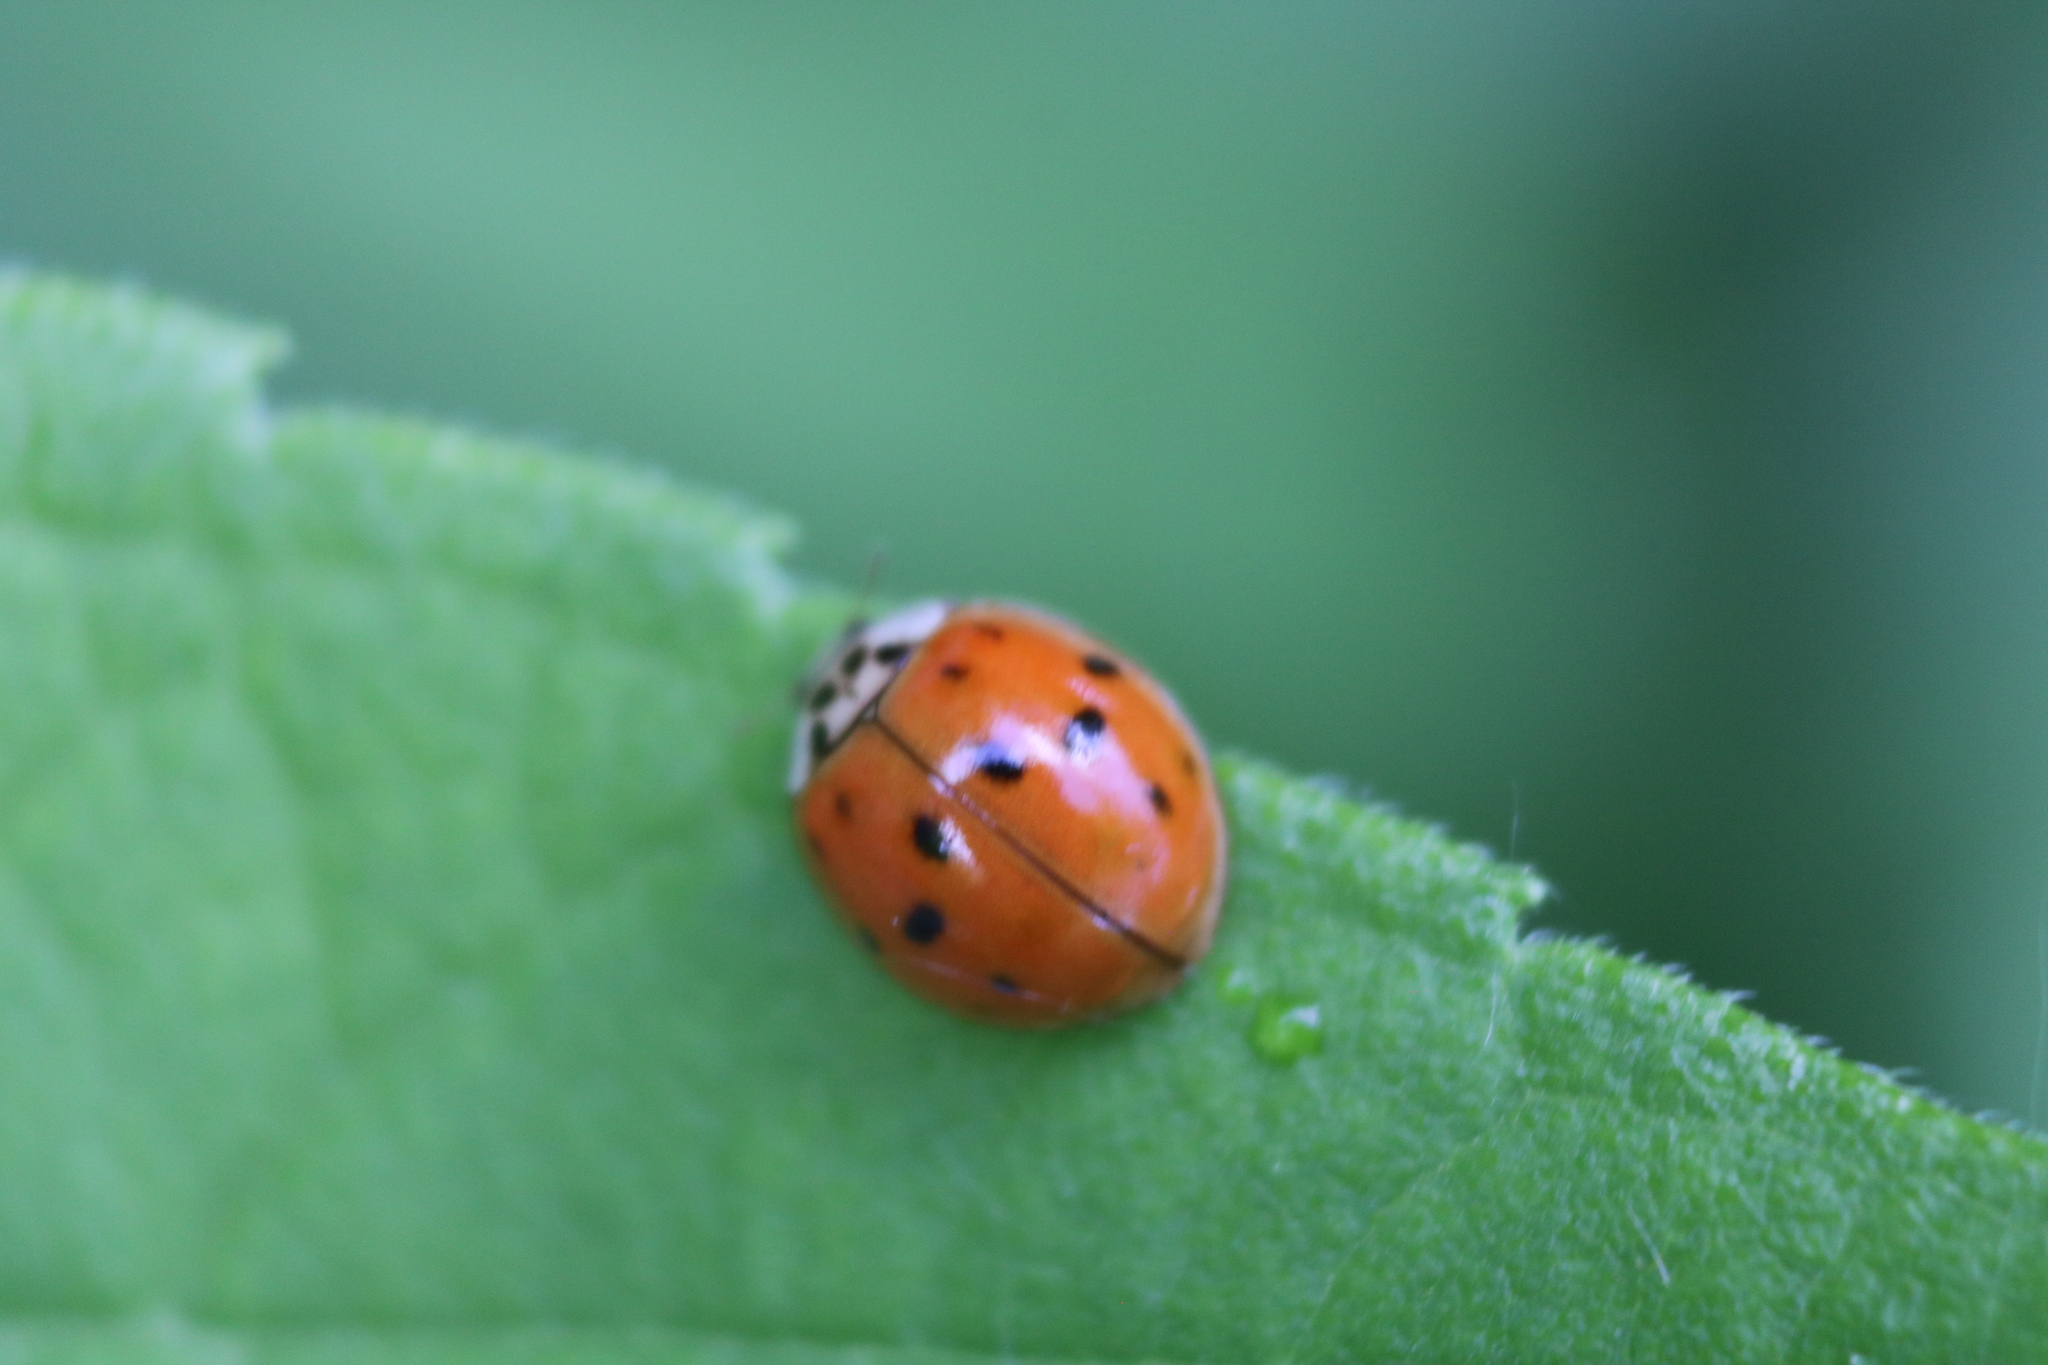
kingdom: Animalia
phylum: Arthropoda
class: Insecta
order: Coleoptera
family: Coccinellidae
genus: Harmonia
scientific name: Harmonia axyridis
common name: Harlequin ladybird
